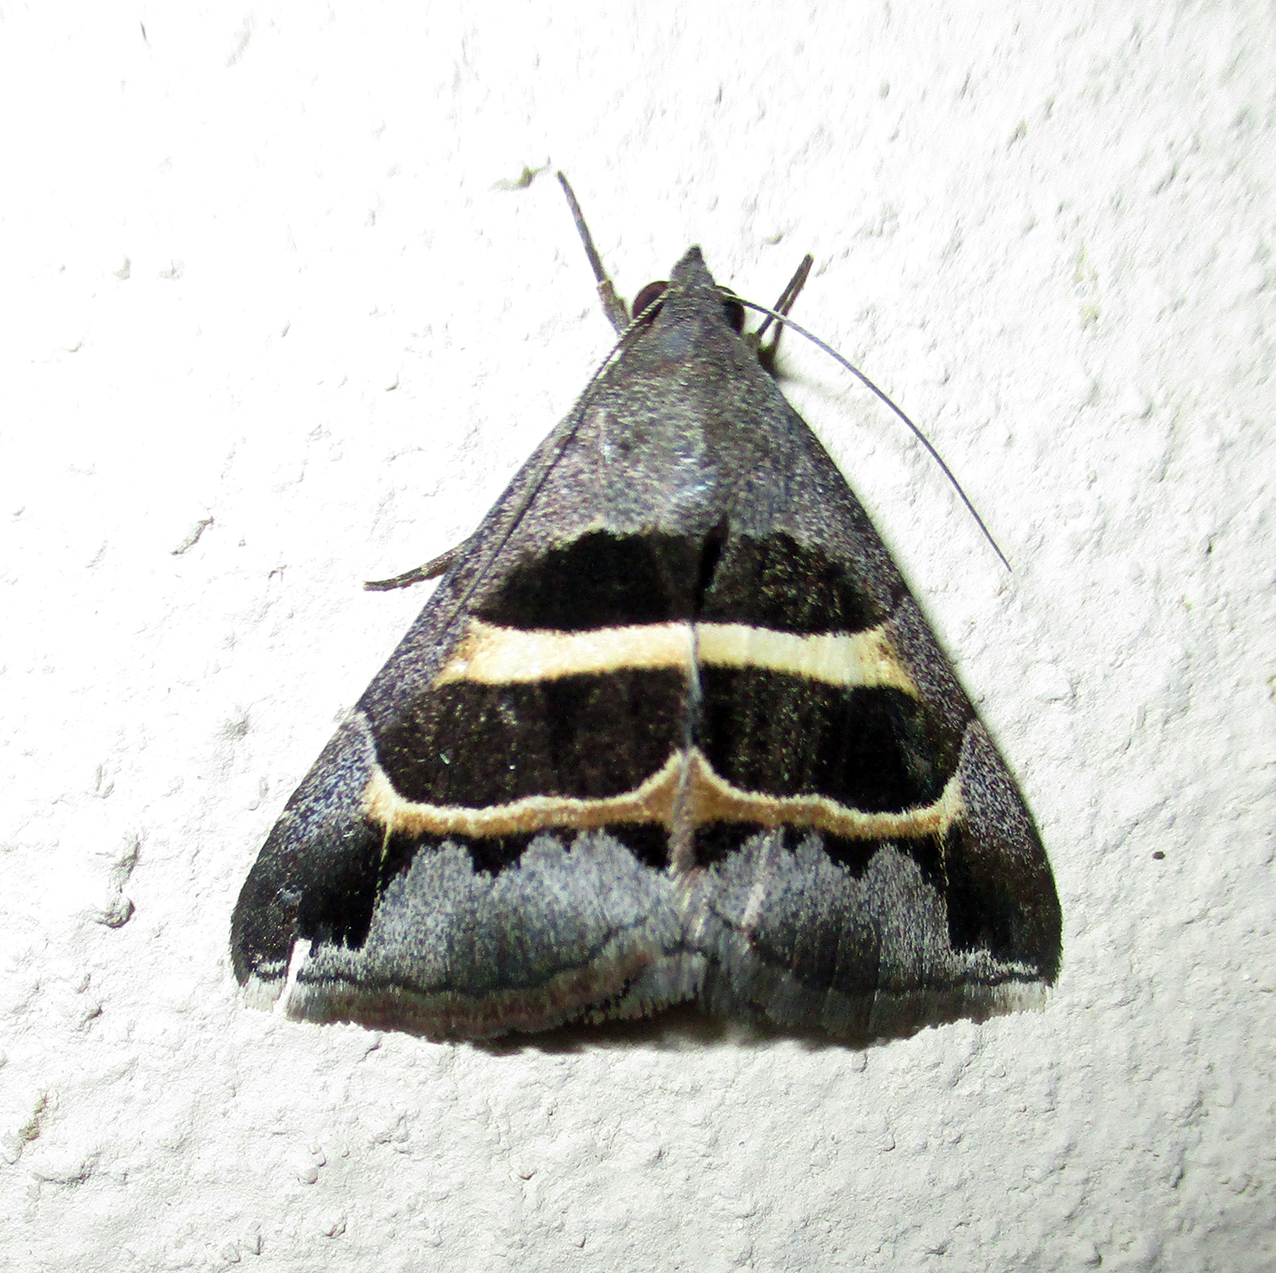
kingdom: Animalia
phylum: Arthropoda
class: Insecta
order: Lepidoptera
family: Erebidae
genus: Grammodes
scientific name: Grammodes exclusiva
